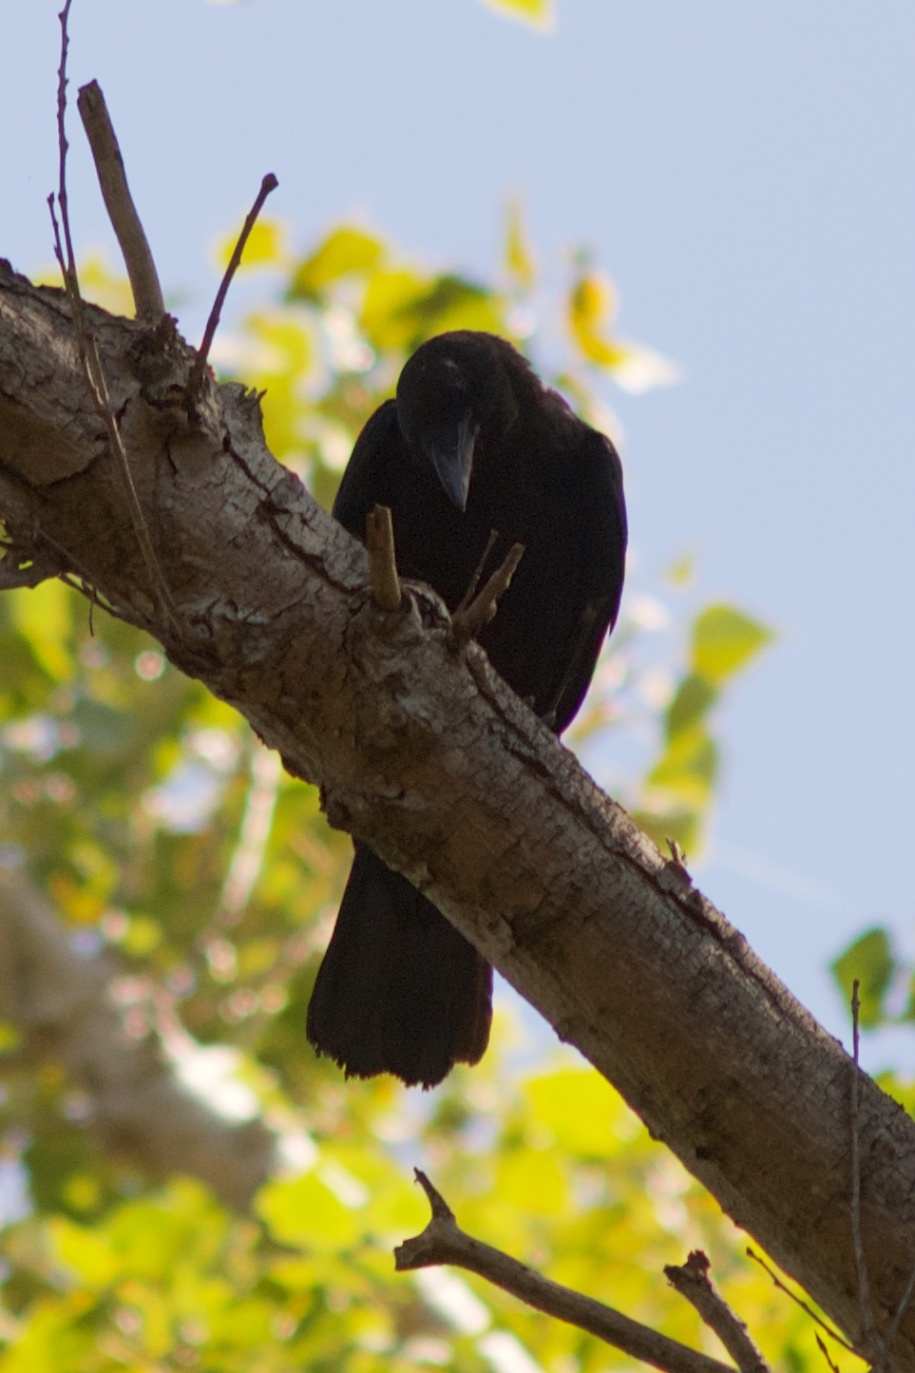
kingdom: Animalia
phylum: Chordata
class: Aves
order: Passeriformes
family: Corvidae
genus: Corvus
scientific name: Corvus brachyrhynchos
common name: American crow
